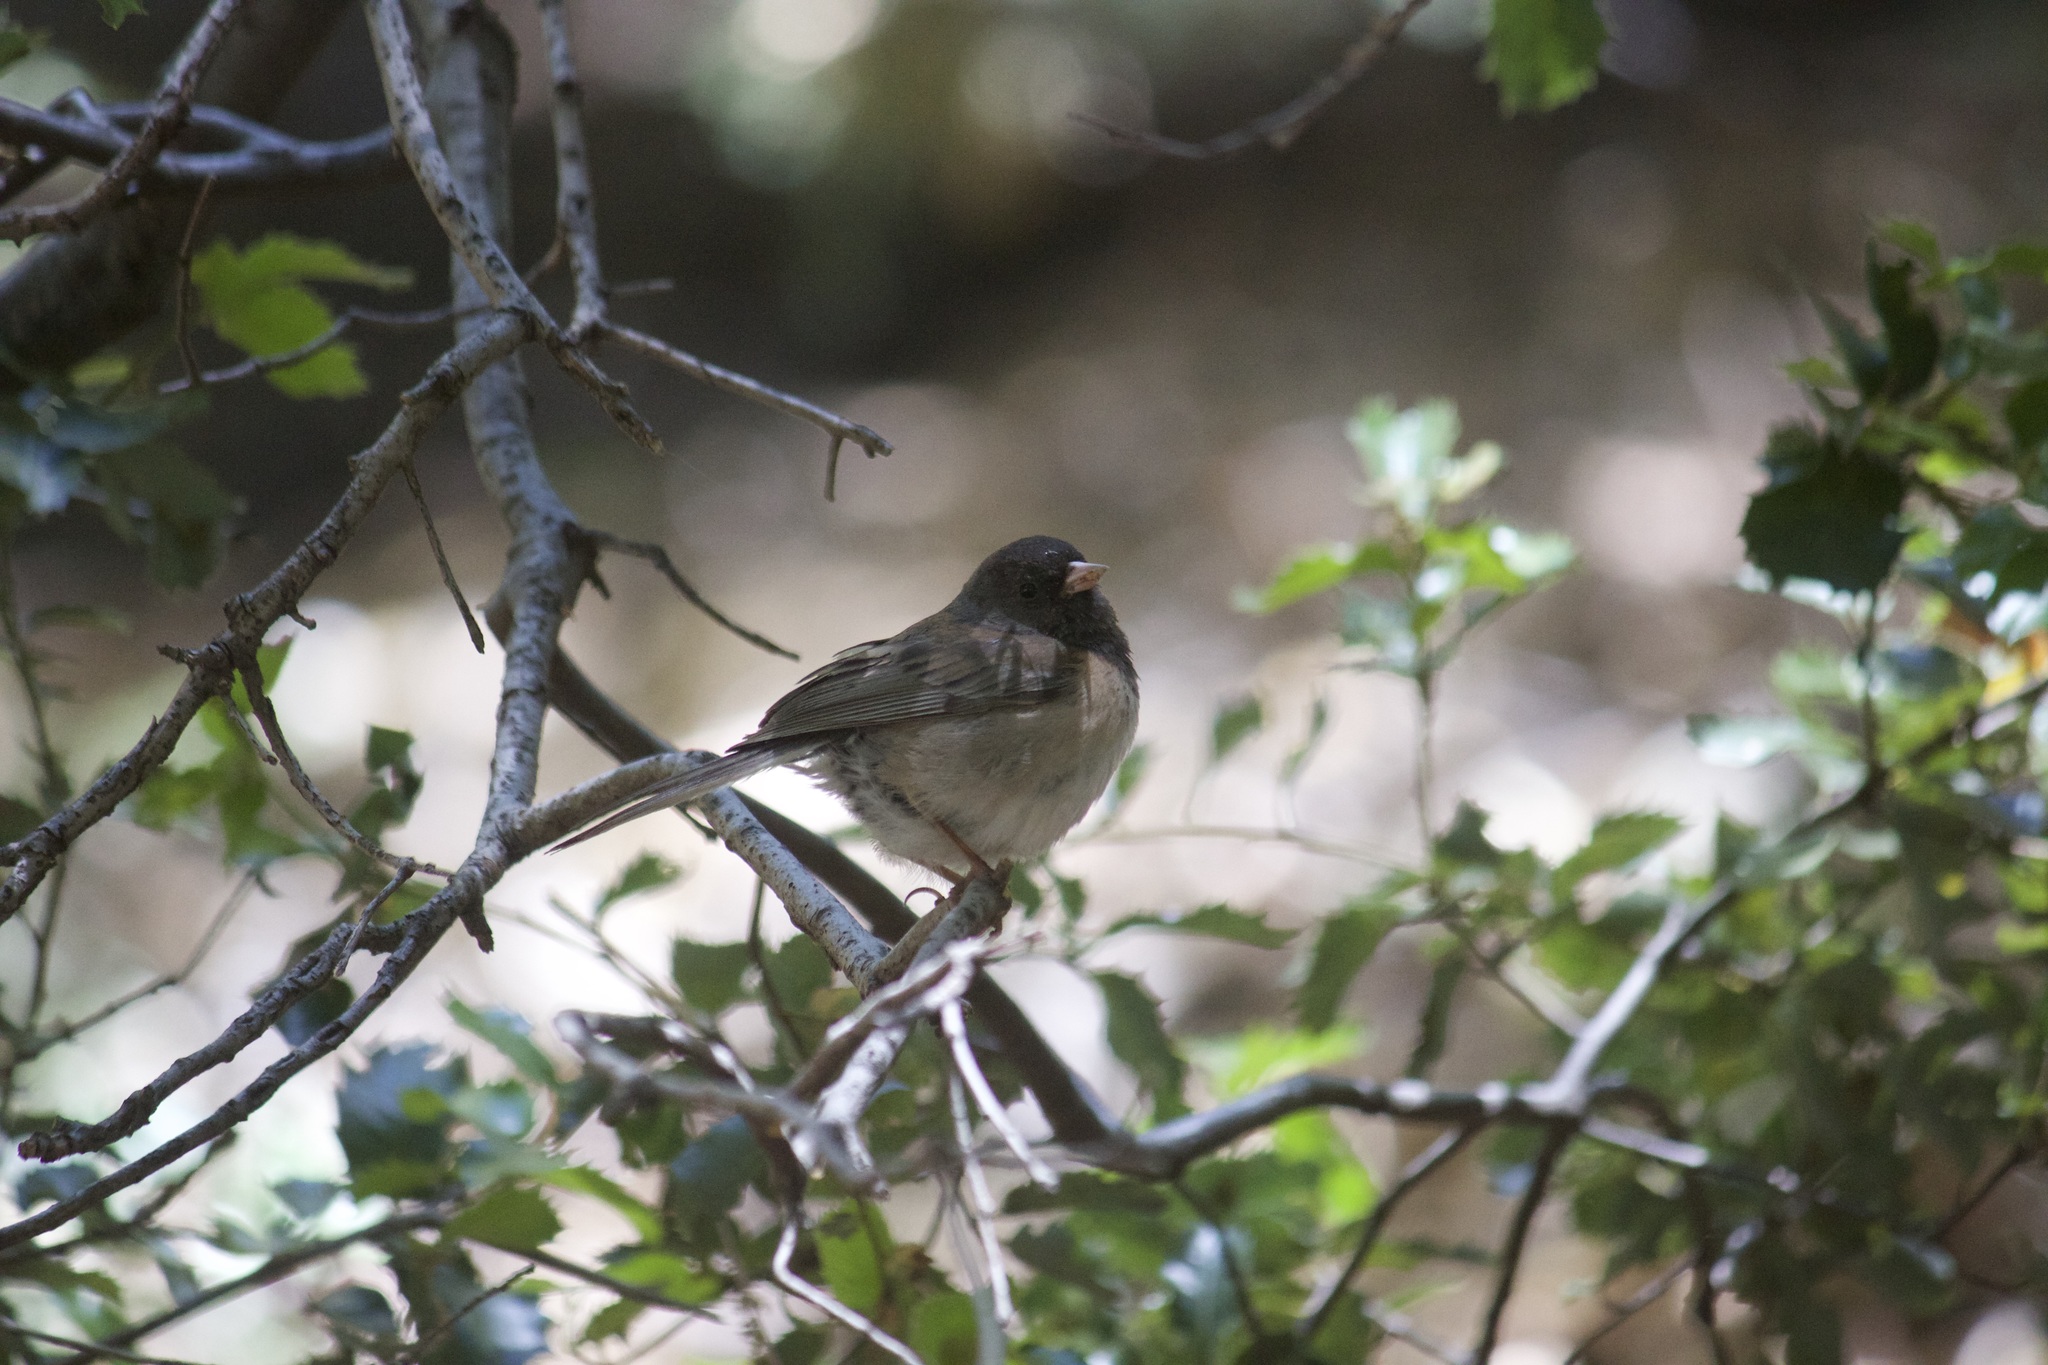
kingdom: Animalia
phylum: Chordata
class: Aves
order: Passeriformes
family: Passerellidae
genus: Junco
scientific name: Junco hyemalis
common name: Dark-eyed junco
